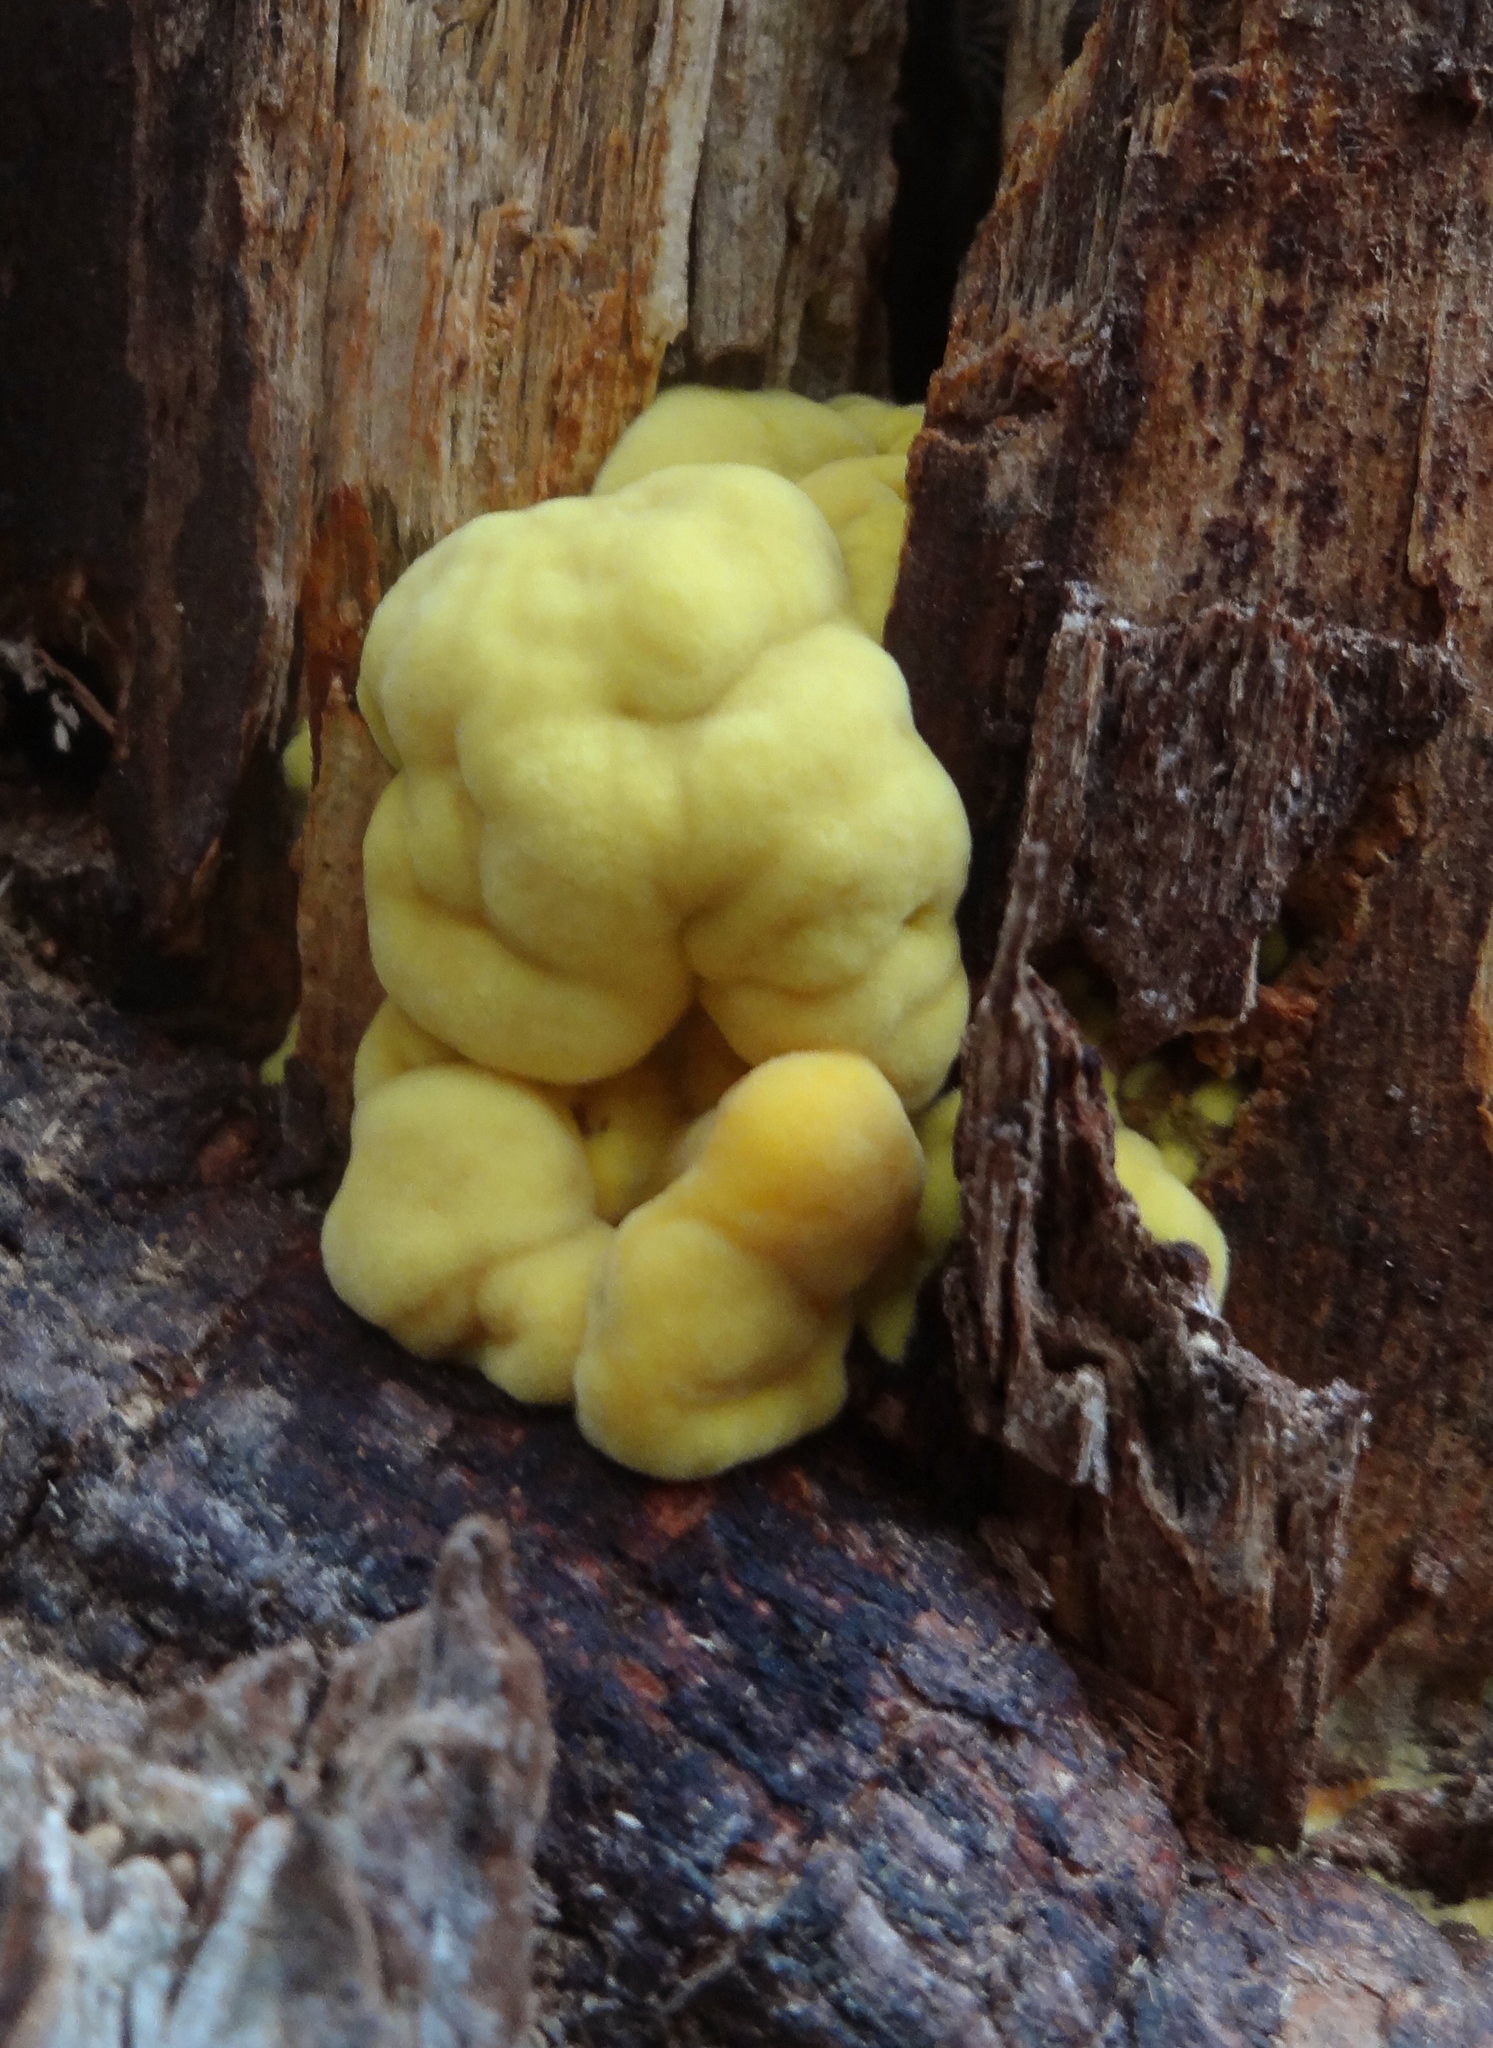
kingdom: Fungi
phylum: Basidiomycota
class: Agaricomycetes
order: Polyporales
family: Laetiporaceae
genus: Laetiporus
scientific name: Laetiporus gilbertsonii
